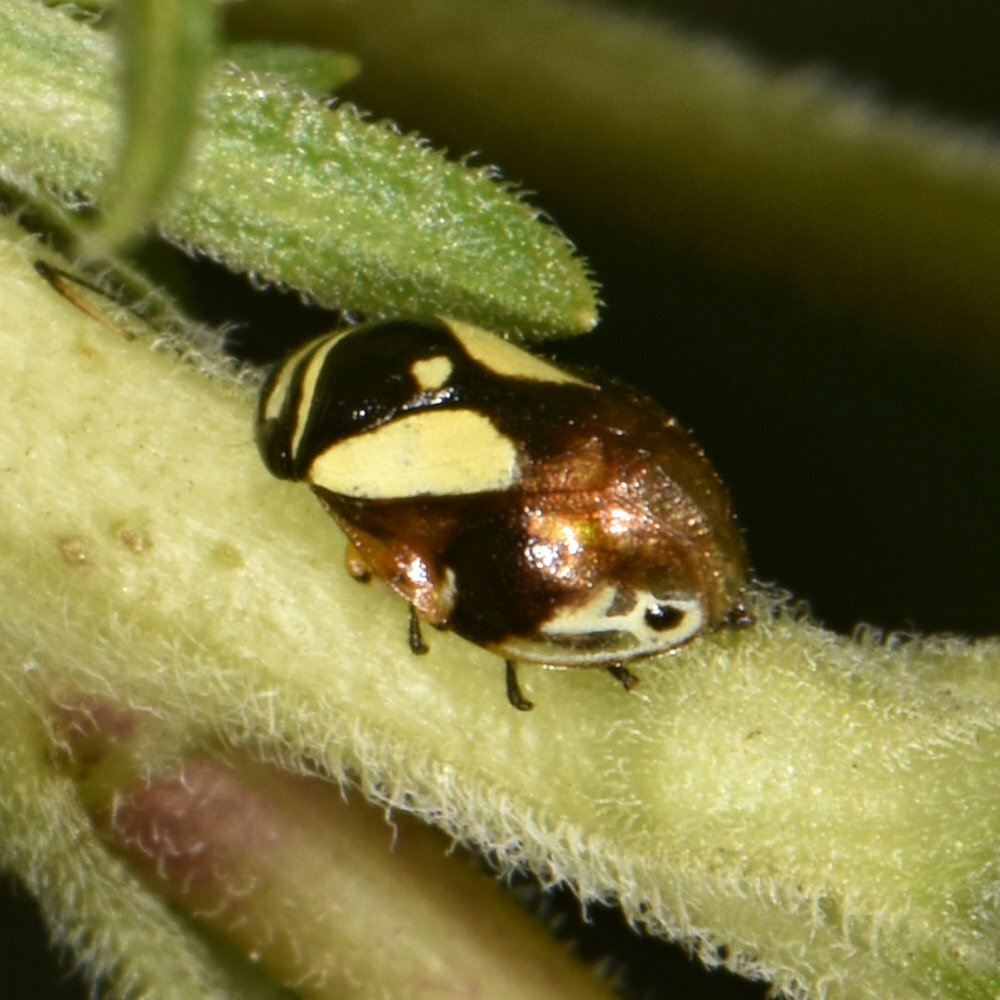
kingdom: Animalia
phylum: Arthropoda
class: Insecta
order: Hemiptera
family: Clastopteridae
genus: Clastoptera
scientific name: Clastoptera proteus
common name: Dogwood spittlebug
